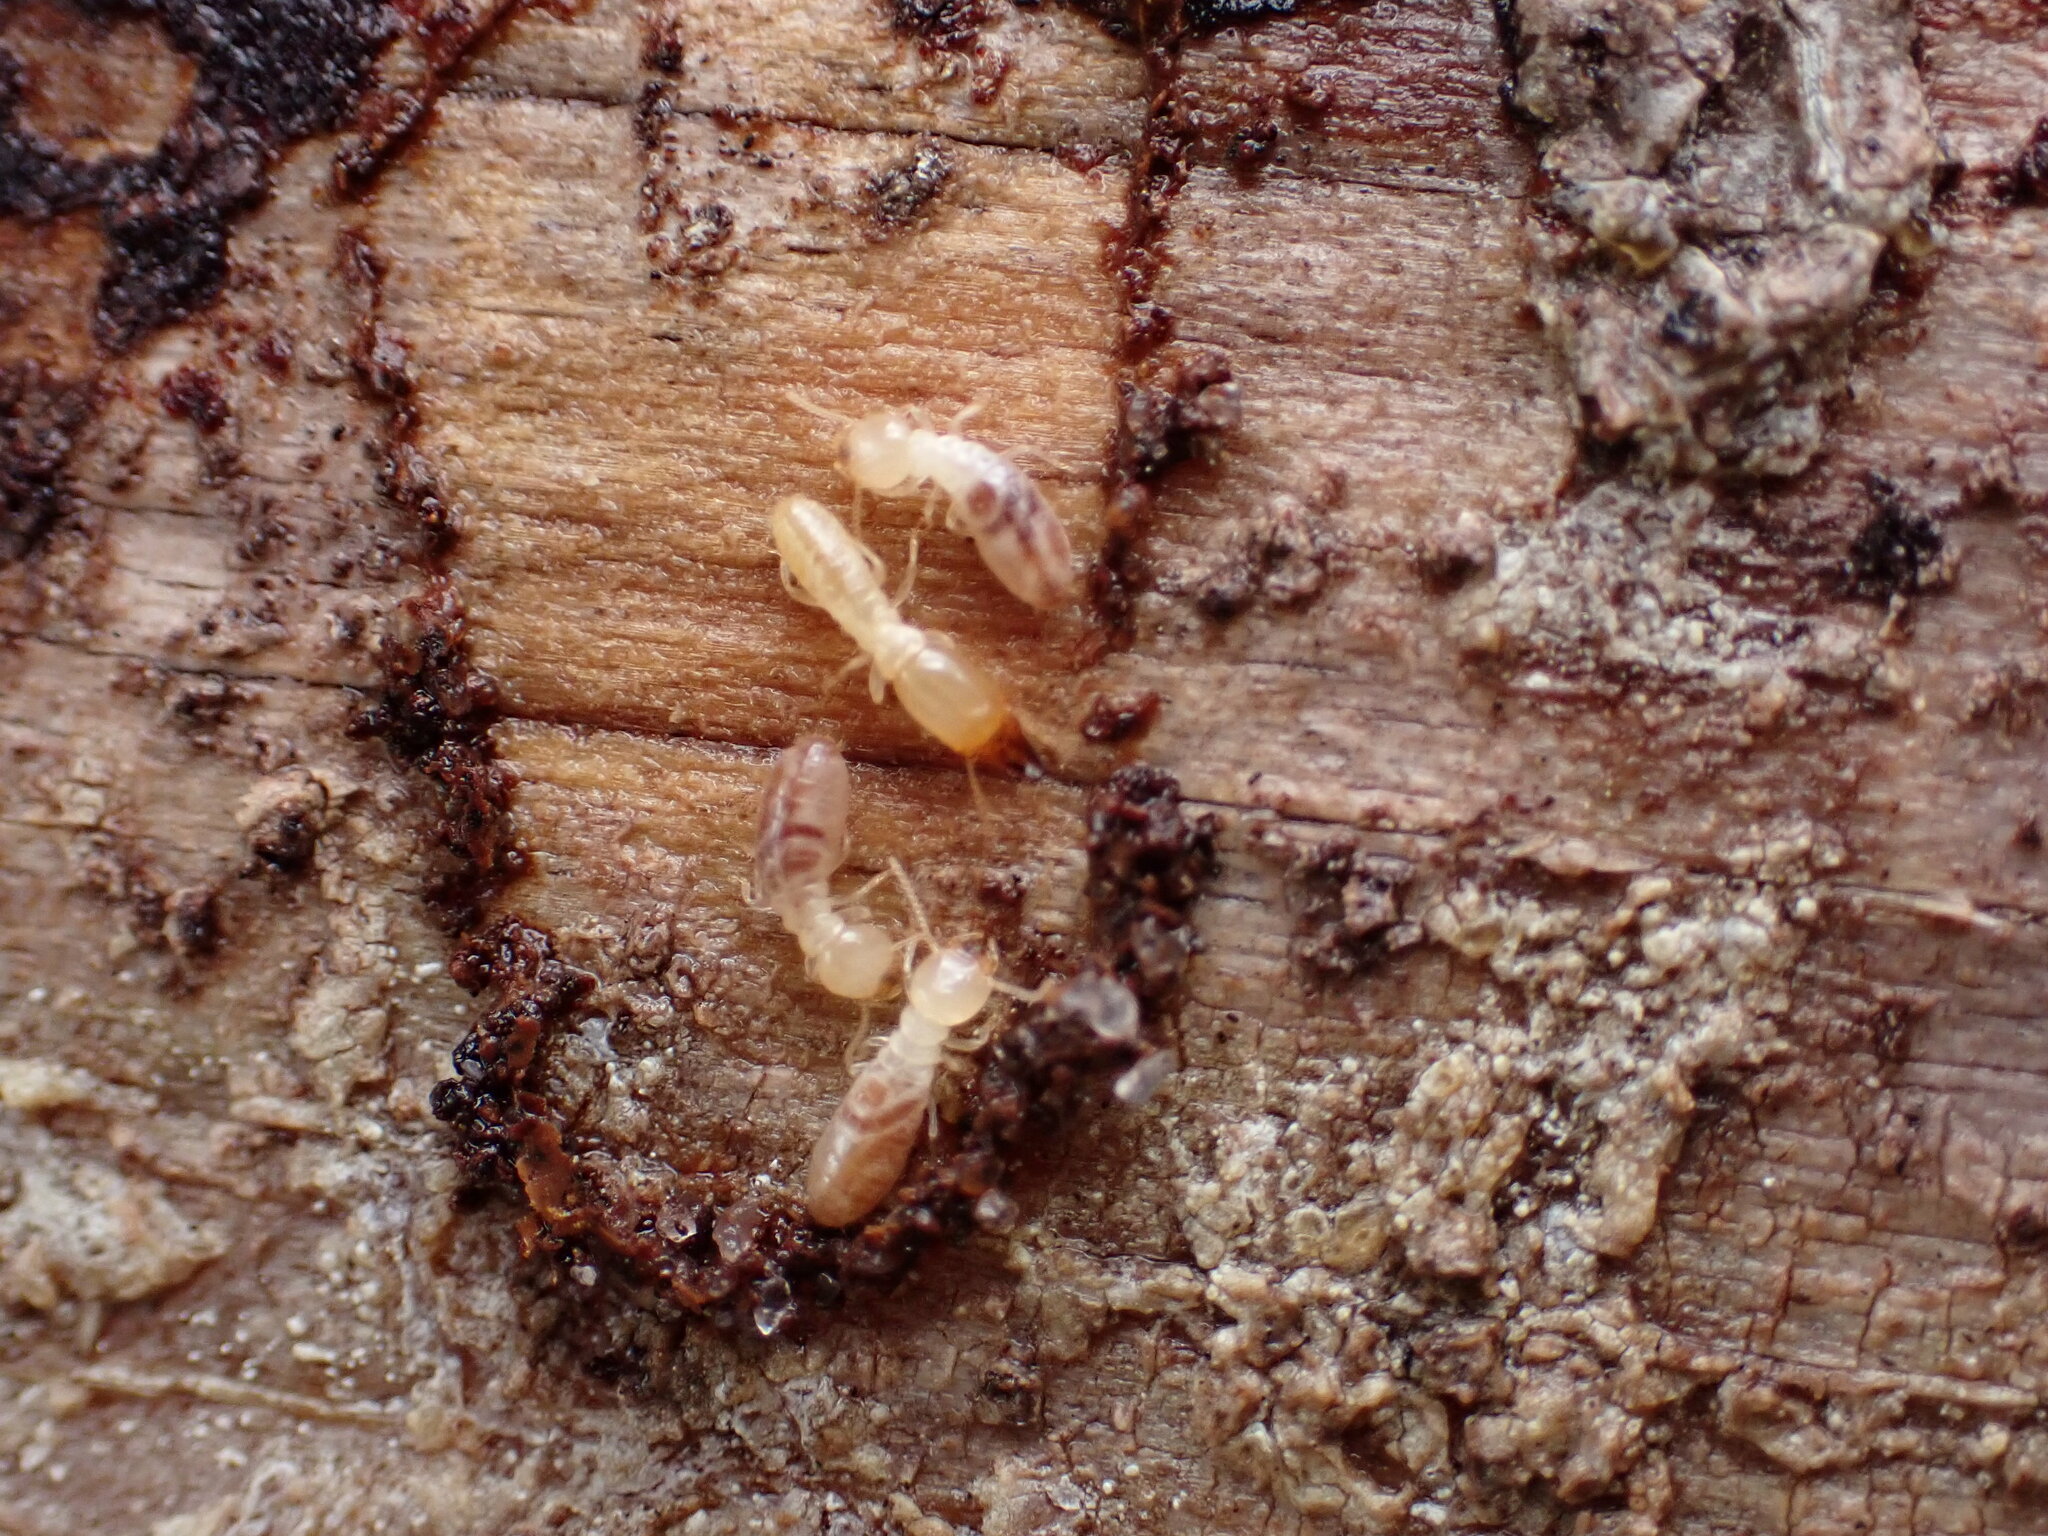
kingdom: Animalia
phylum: Arthropoda
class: Insecta
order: Blattodea
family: Rhinotermitidae
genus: Reticulitermes
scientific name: Reticulitermes flavipes
